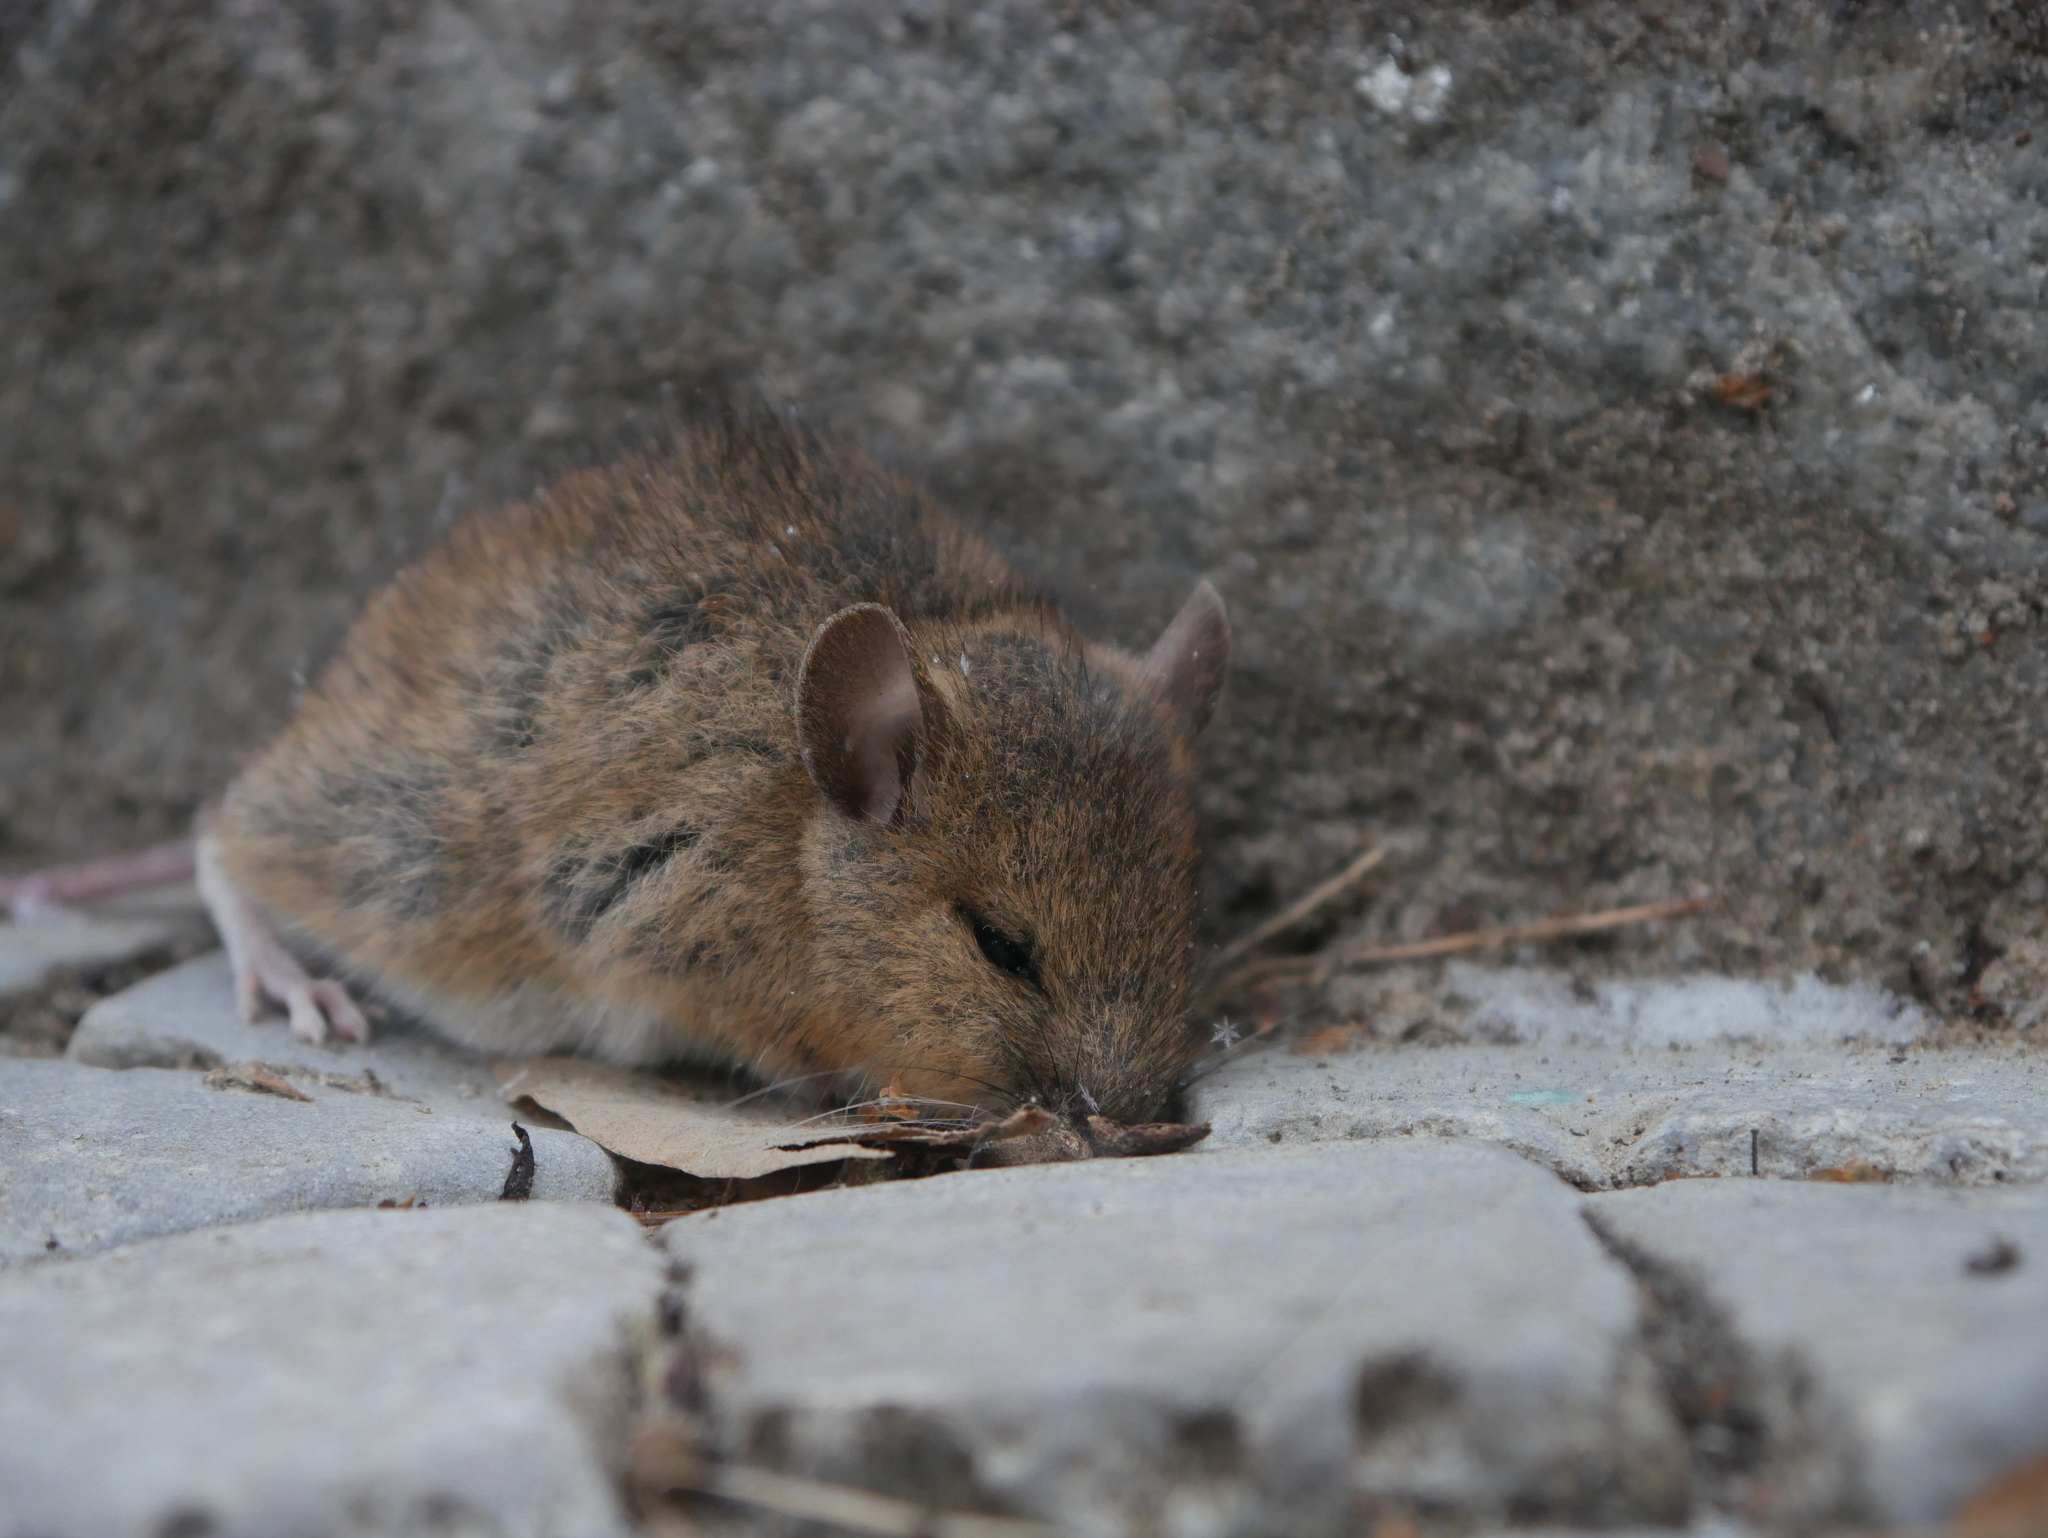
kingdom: Animalia
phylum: Chordata
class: Mammalia
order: Rodentia
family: Muridae
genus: Mus
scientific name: Mus musculus
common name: House mouse
